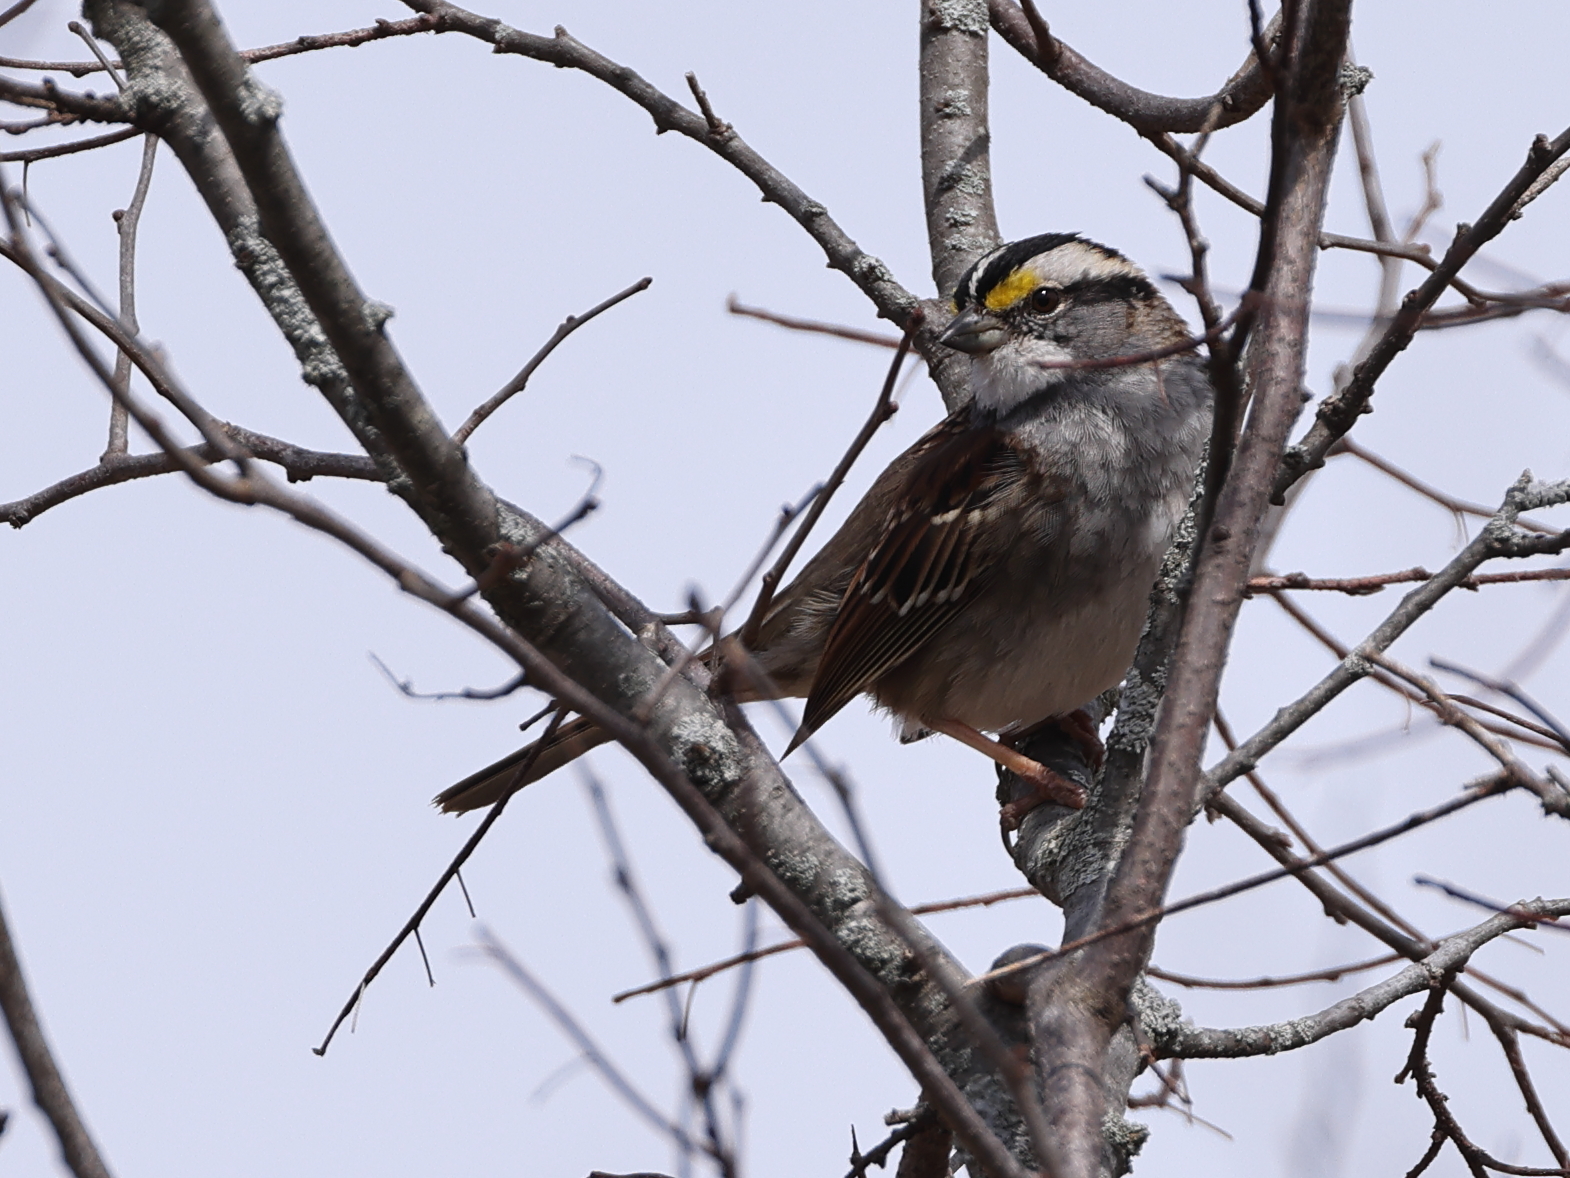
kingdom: Animalia
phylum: Chordata
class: Aves
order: Passeriformes
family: Passerellidae
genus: Zonotrichia
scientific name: Zonotrichia albicollis
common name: White-throated sparrow
